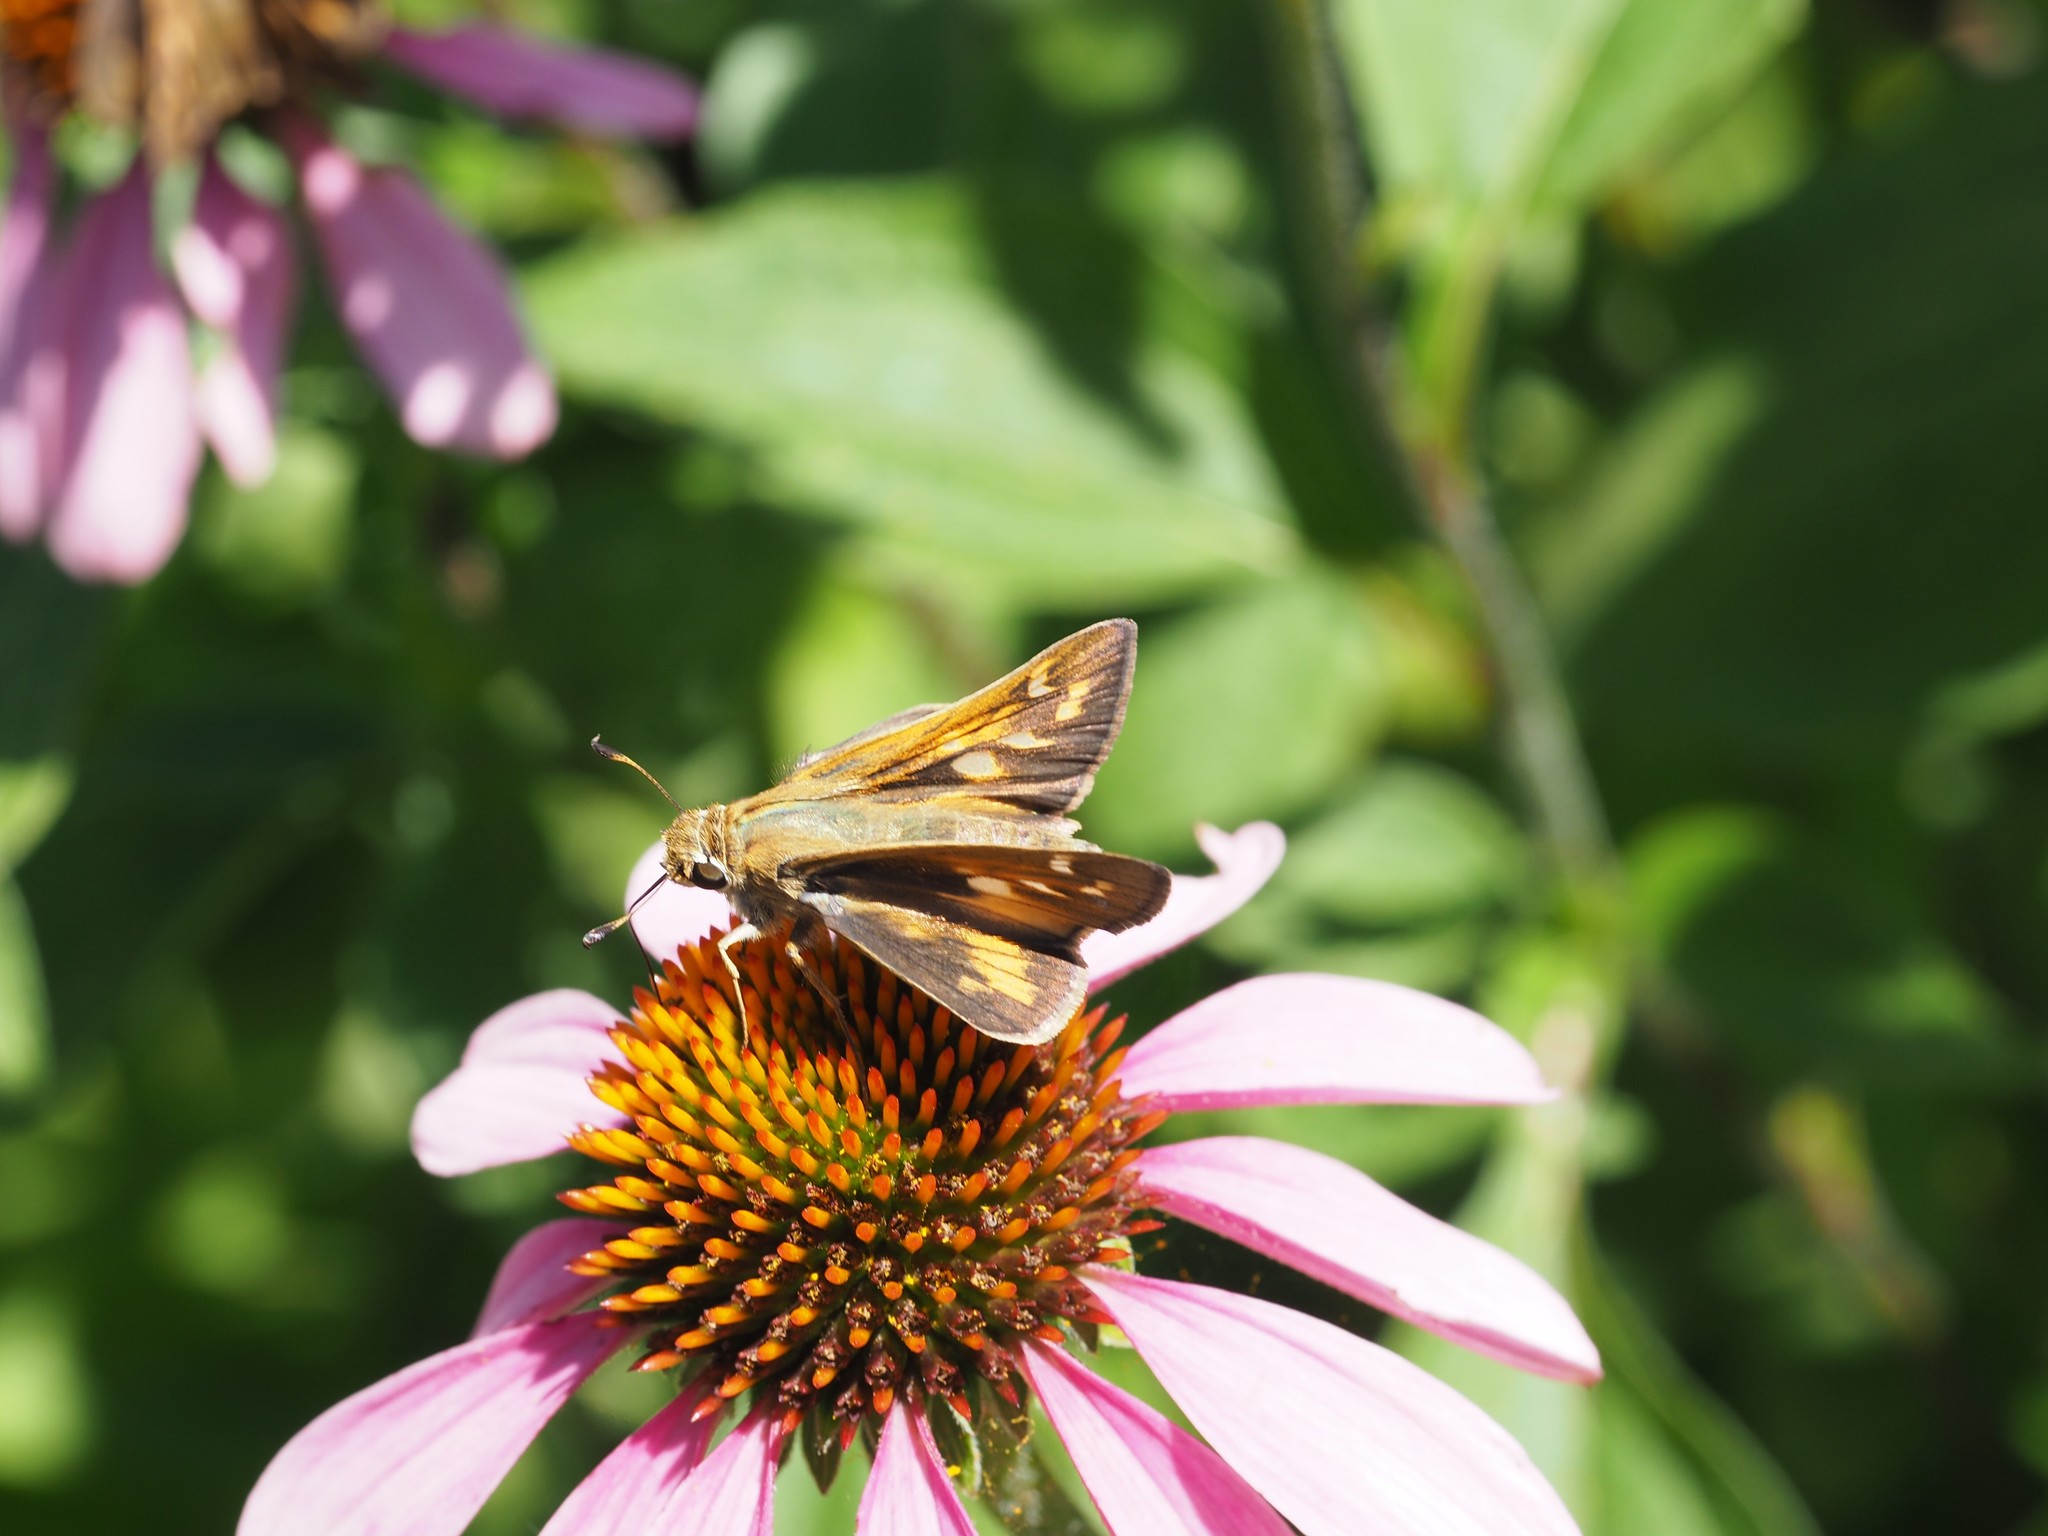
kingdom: Animalia
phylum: Arthropoda
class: Insecta
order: Lepidoptera
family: Hesperiidae
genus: Atalopedes
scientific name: Atalopedes
